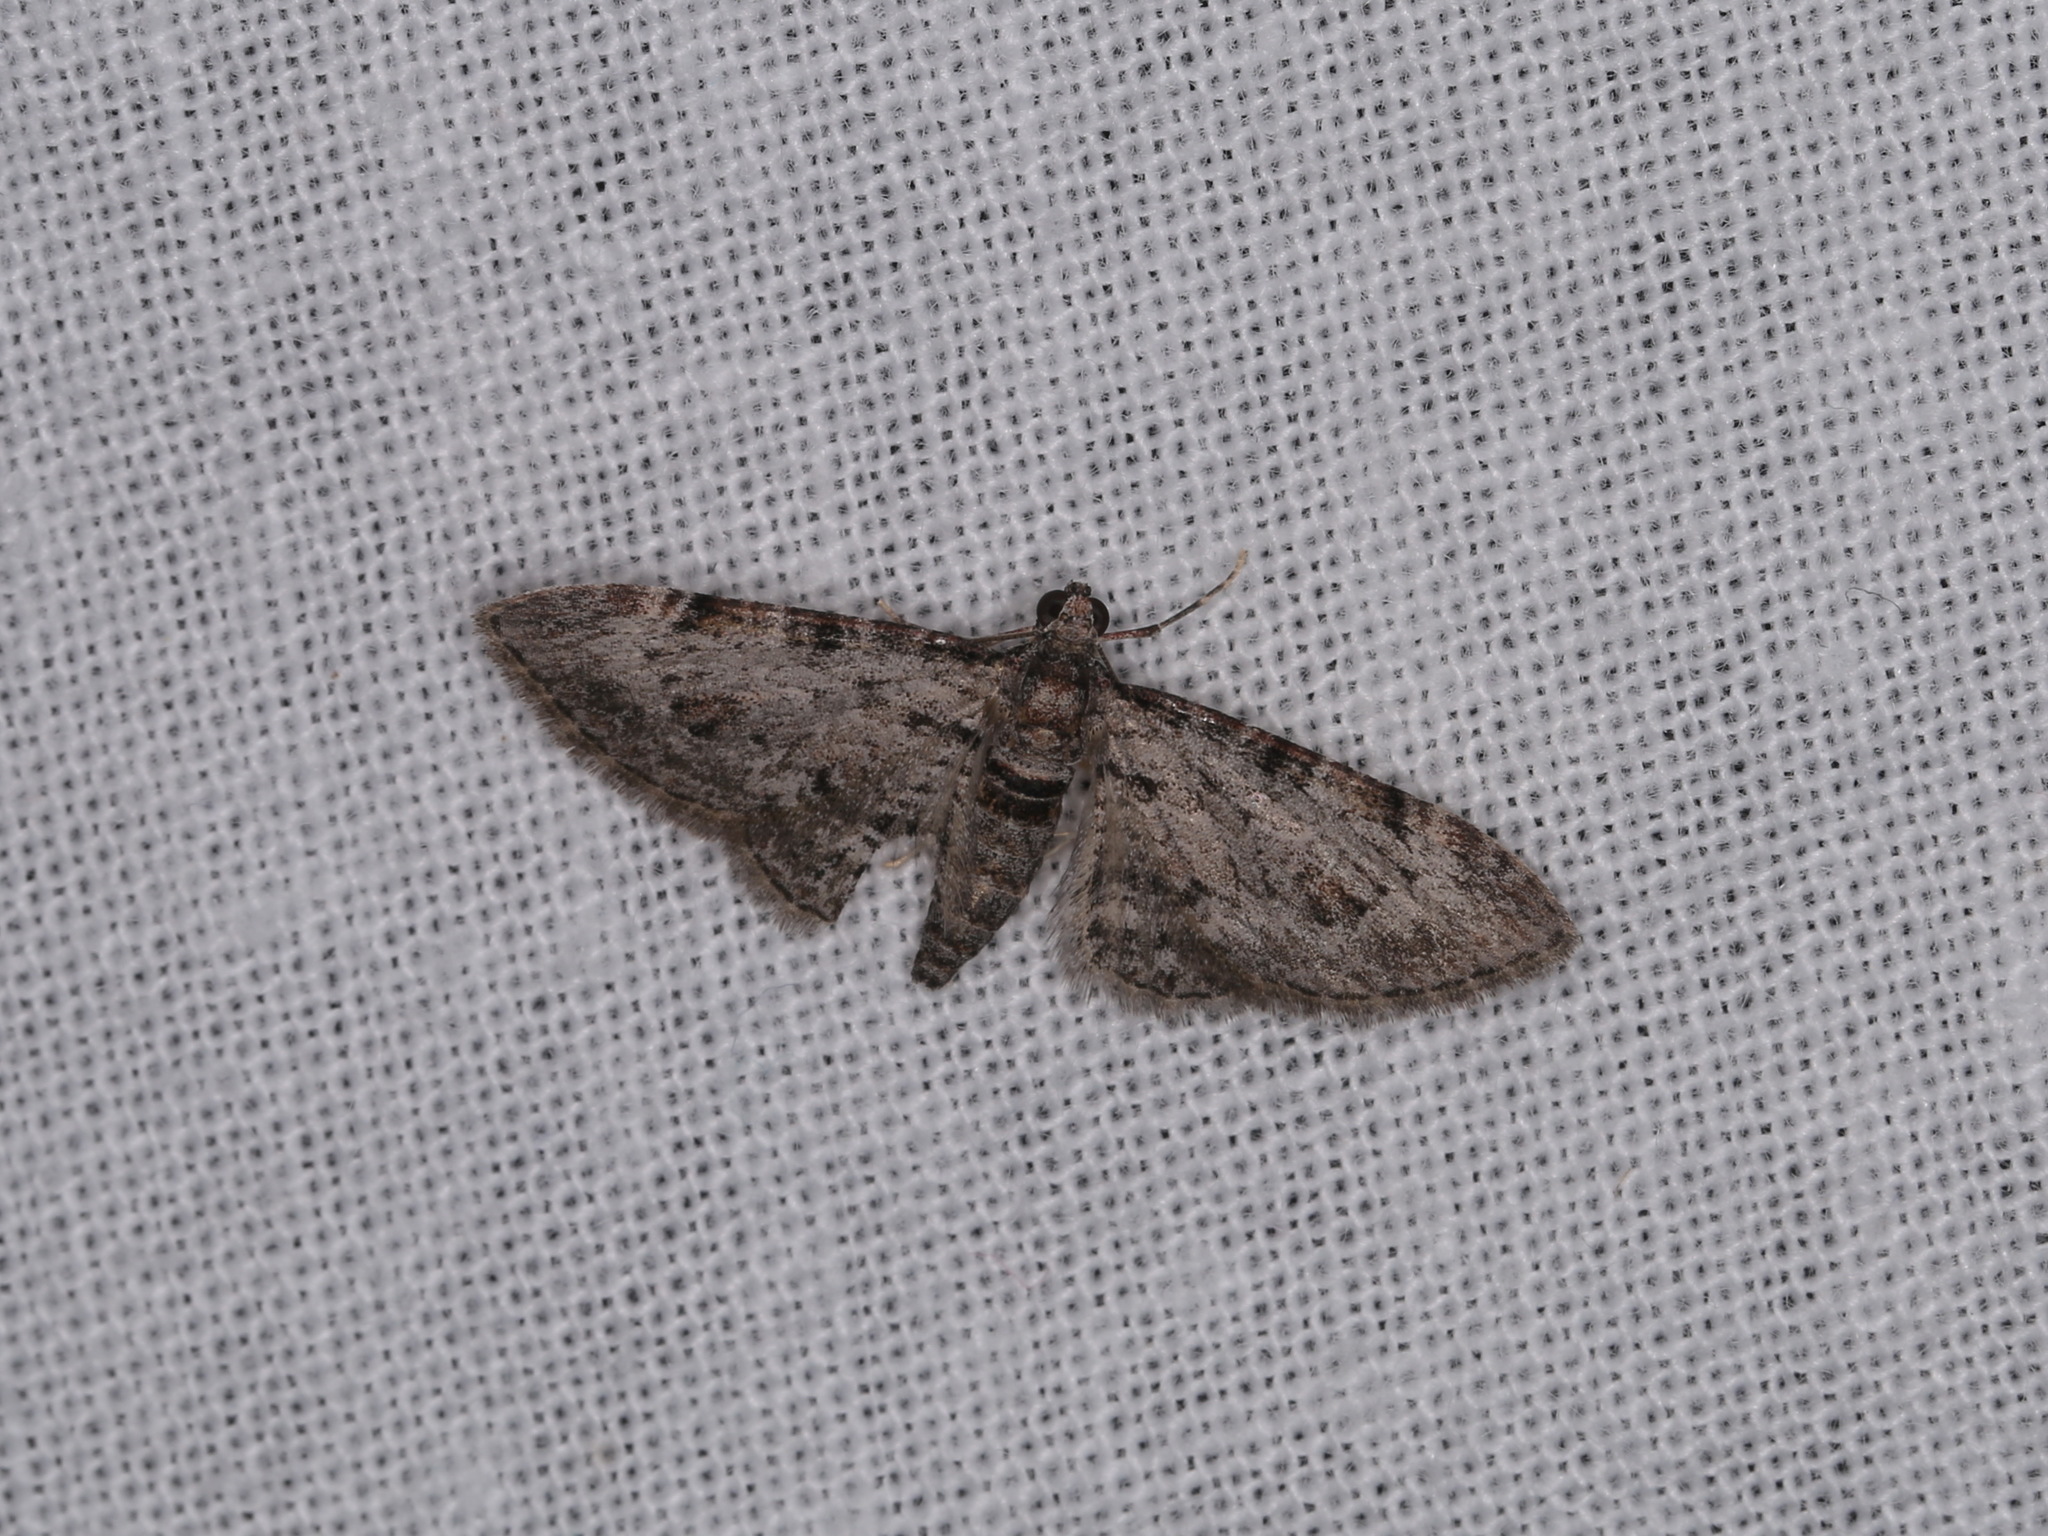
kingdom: Animalia
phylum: Arthropoda
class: Insecta
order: Lepidoptera
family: Geometridae
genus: Chloroclystis
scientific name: Chloroclystis insigillata
